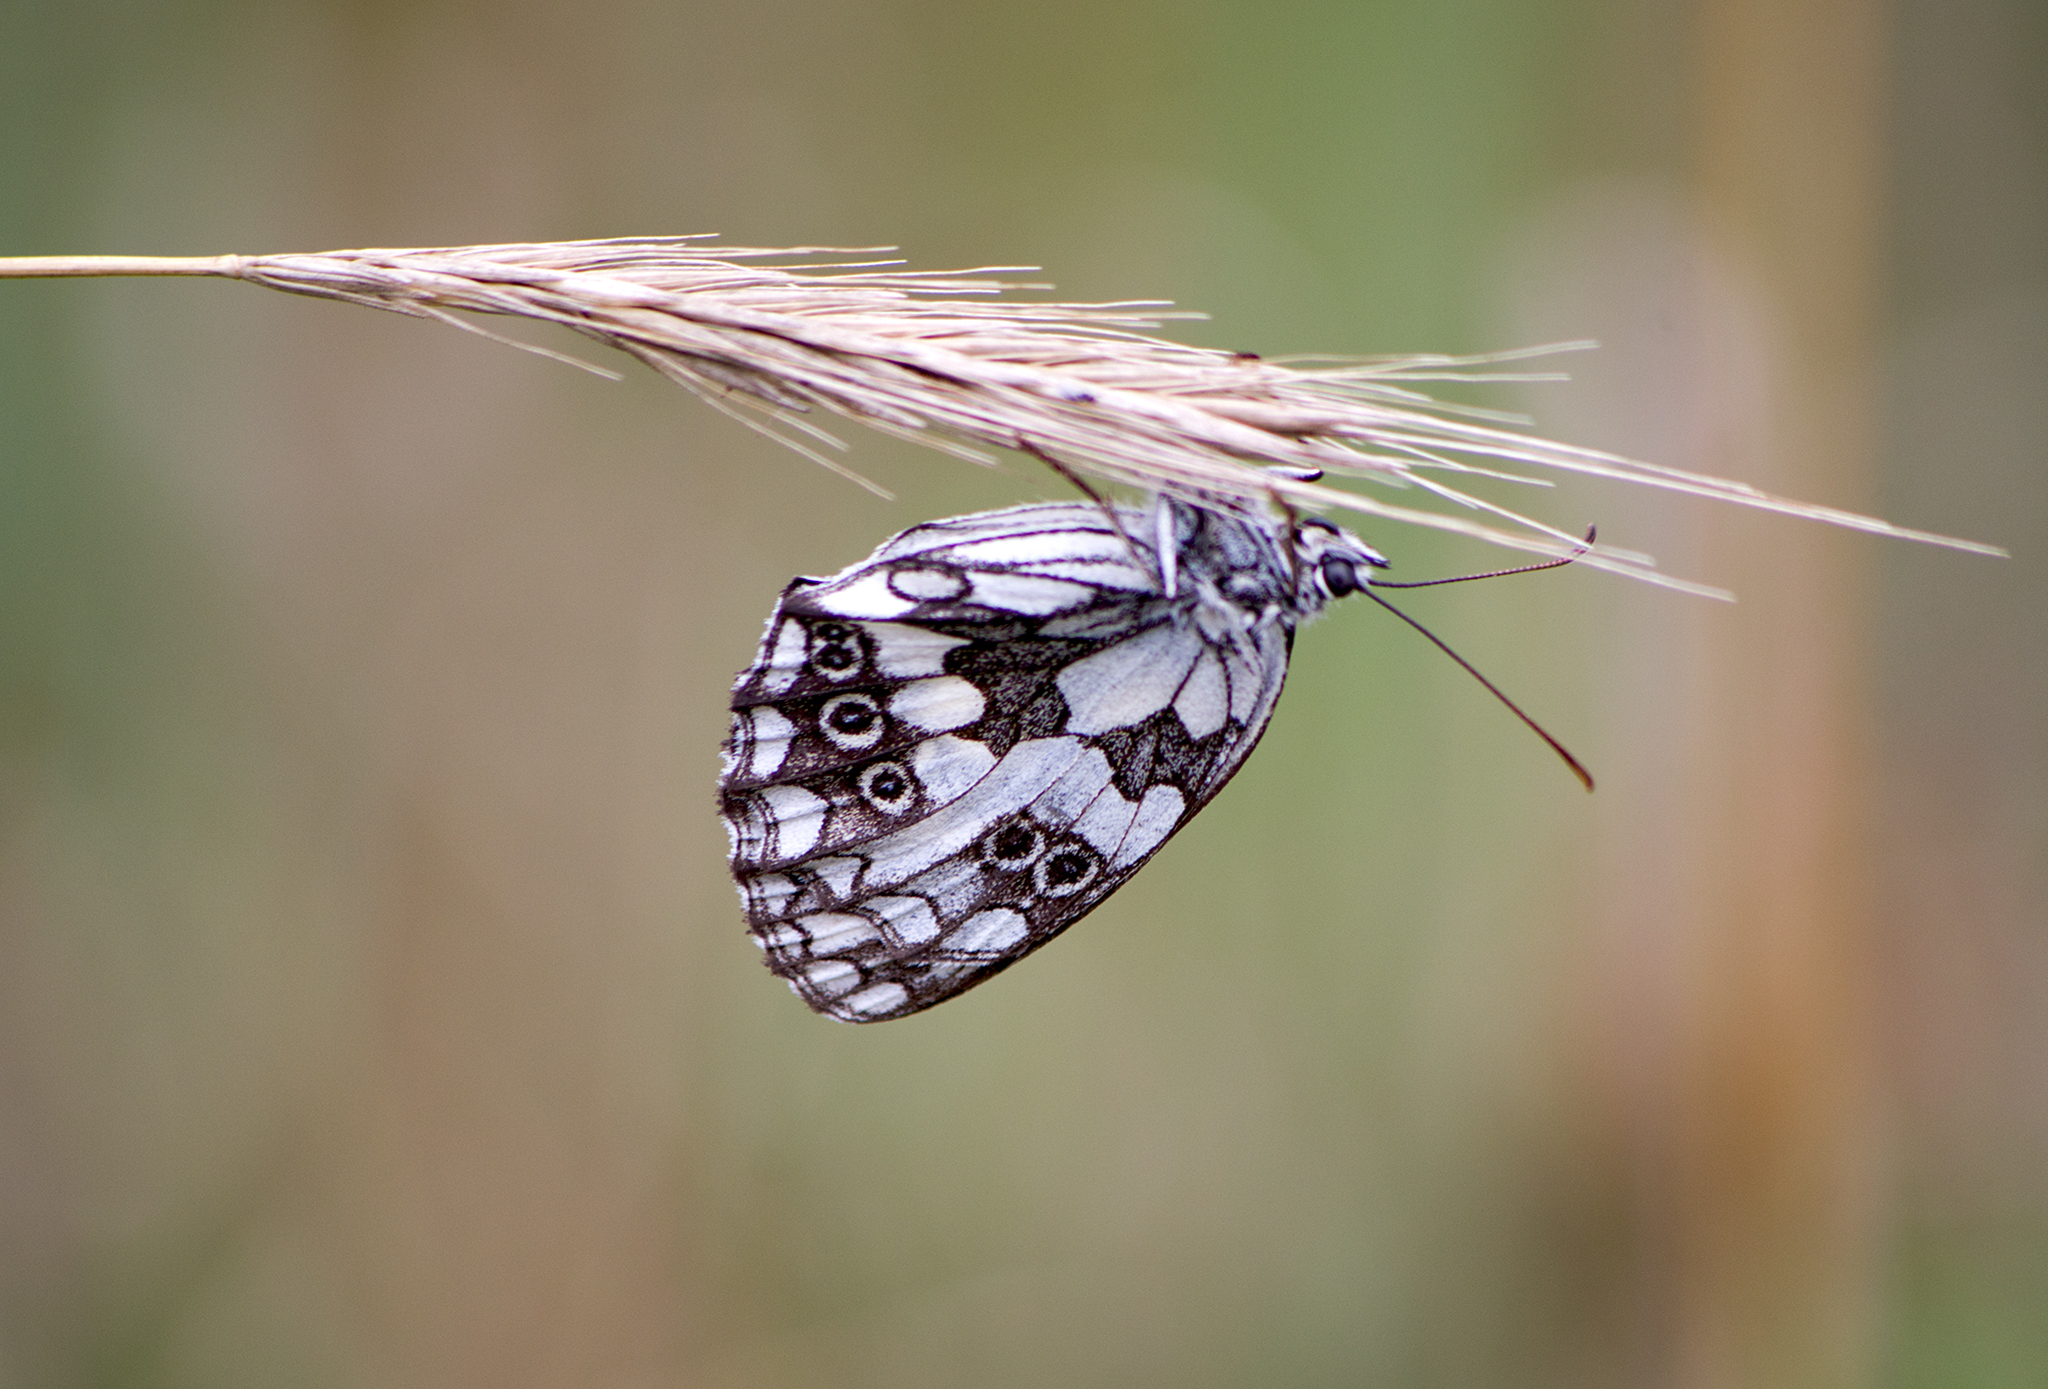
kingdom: Animalia
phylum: Arthropoda
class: Insecta
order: Lepidoptera
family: Nymphalidae
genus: Melanargia
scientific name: Melanargia galathea
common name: Marbled white
